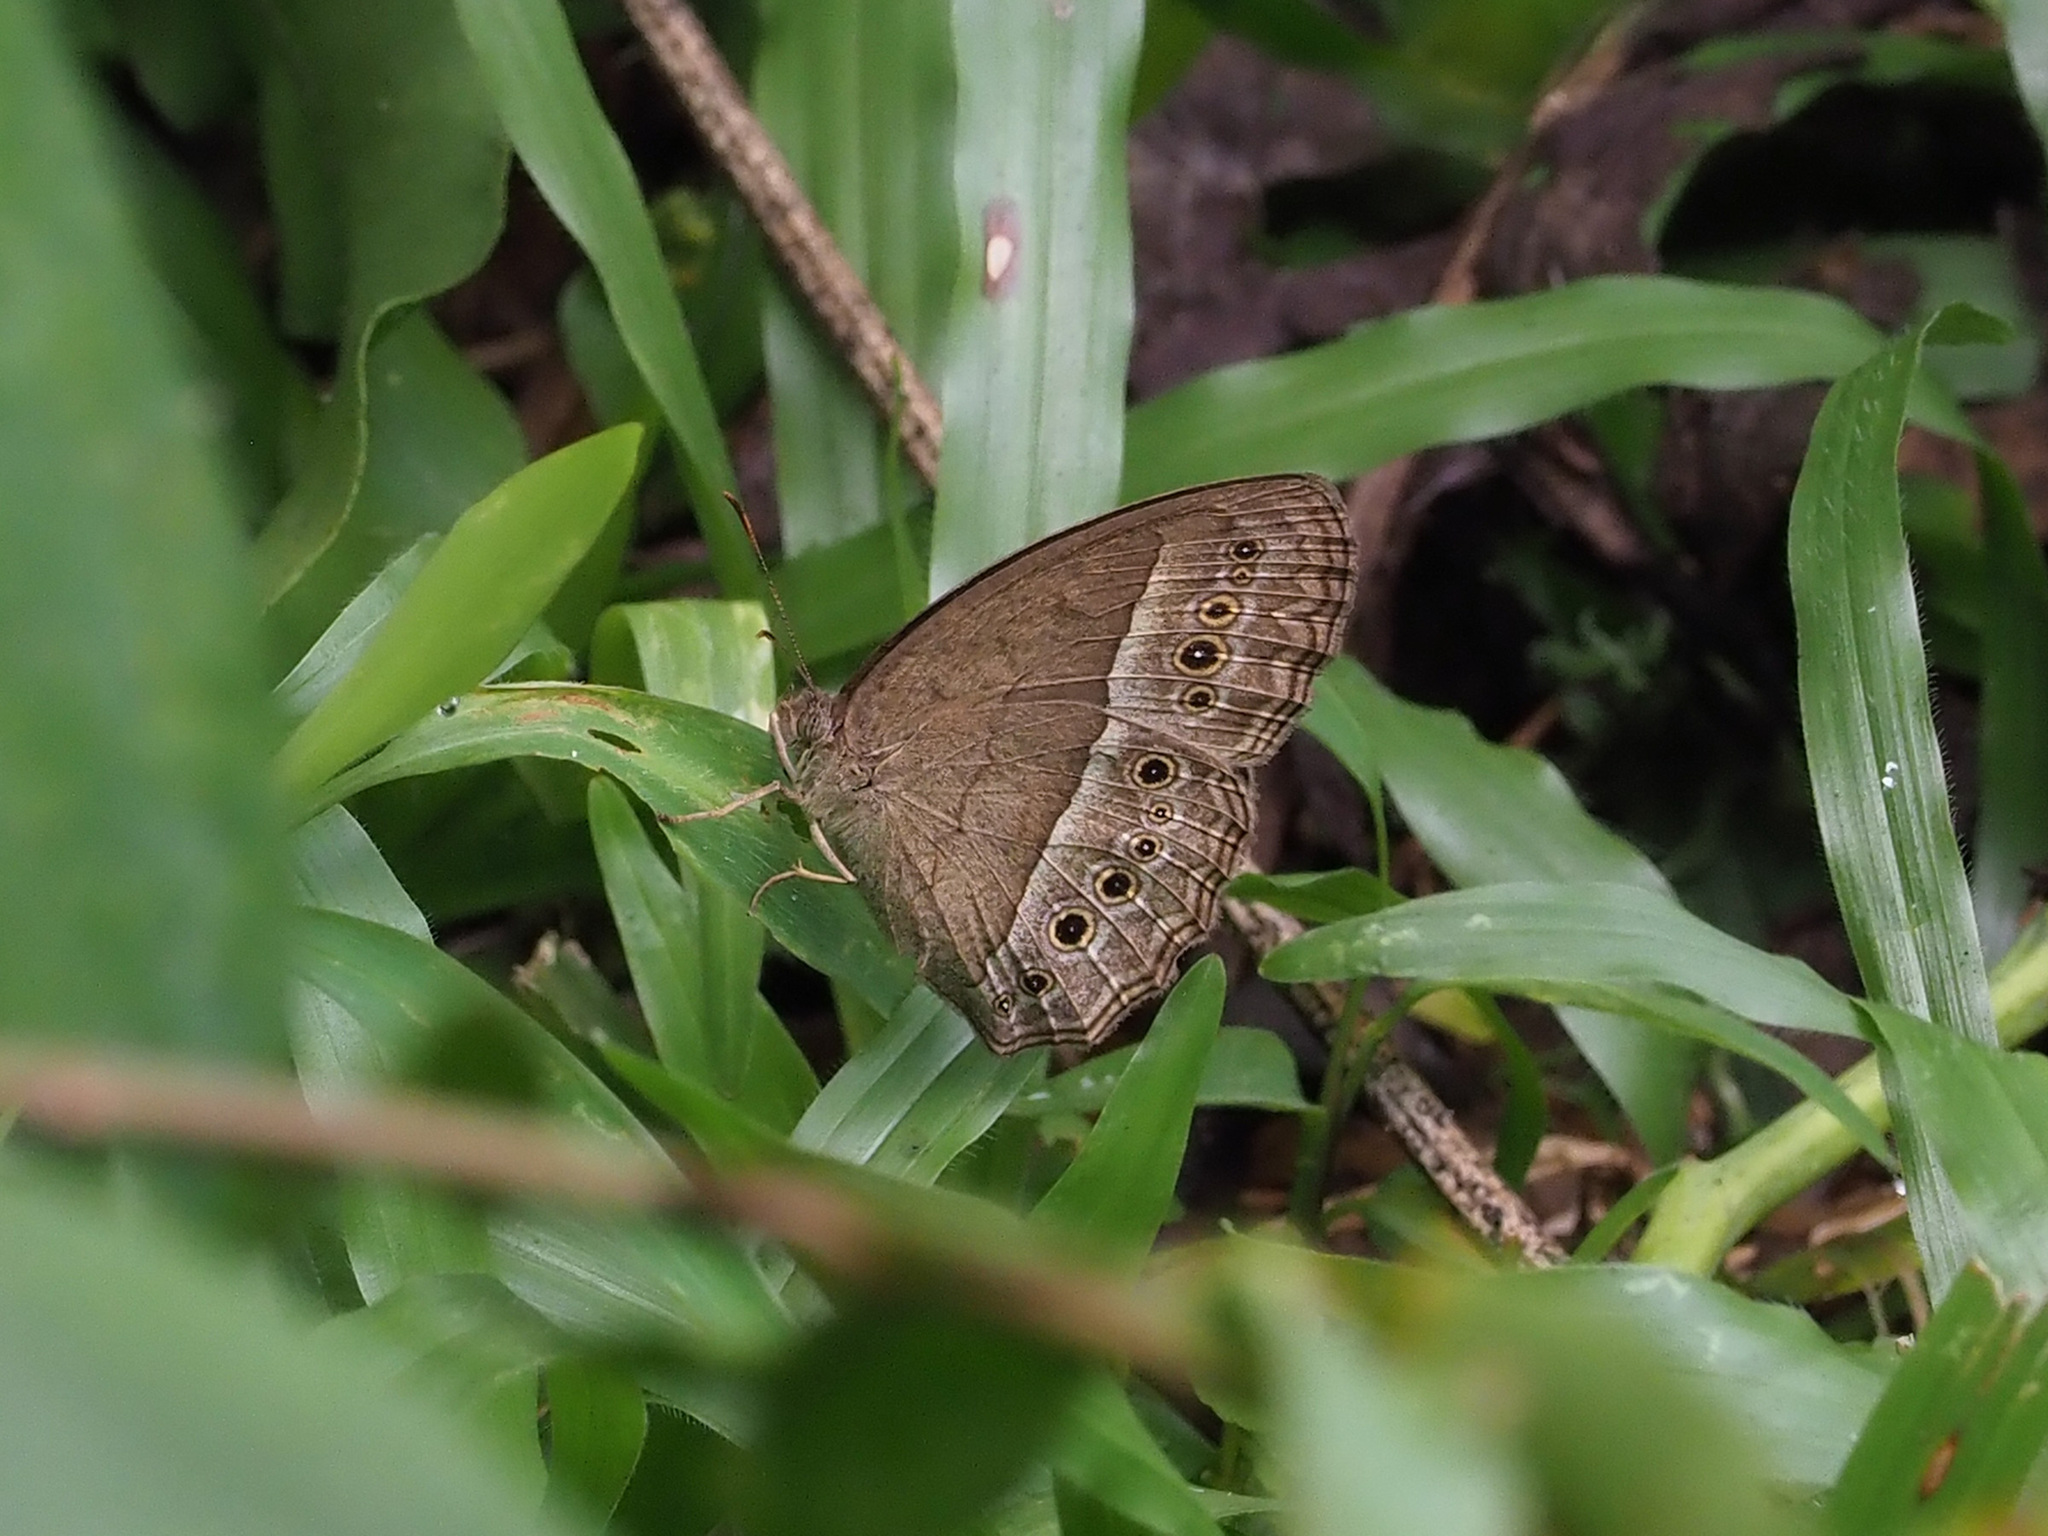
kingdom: Animalia
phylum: Arthropoda
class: Insecta
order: Lepidoptera
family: Nymphalidae
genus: Mycalesis
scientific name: Mycalesis perseoides
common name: Burmese bushbrown
